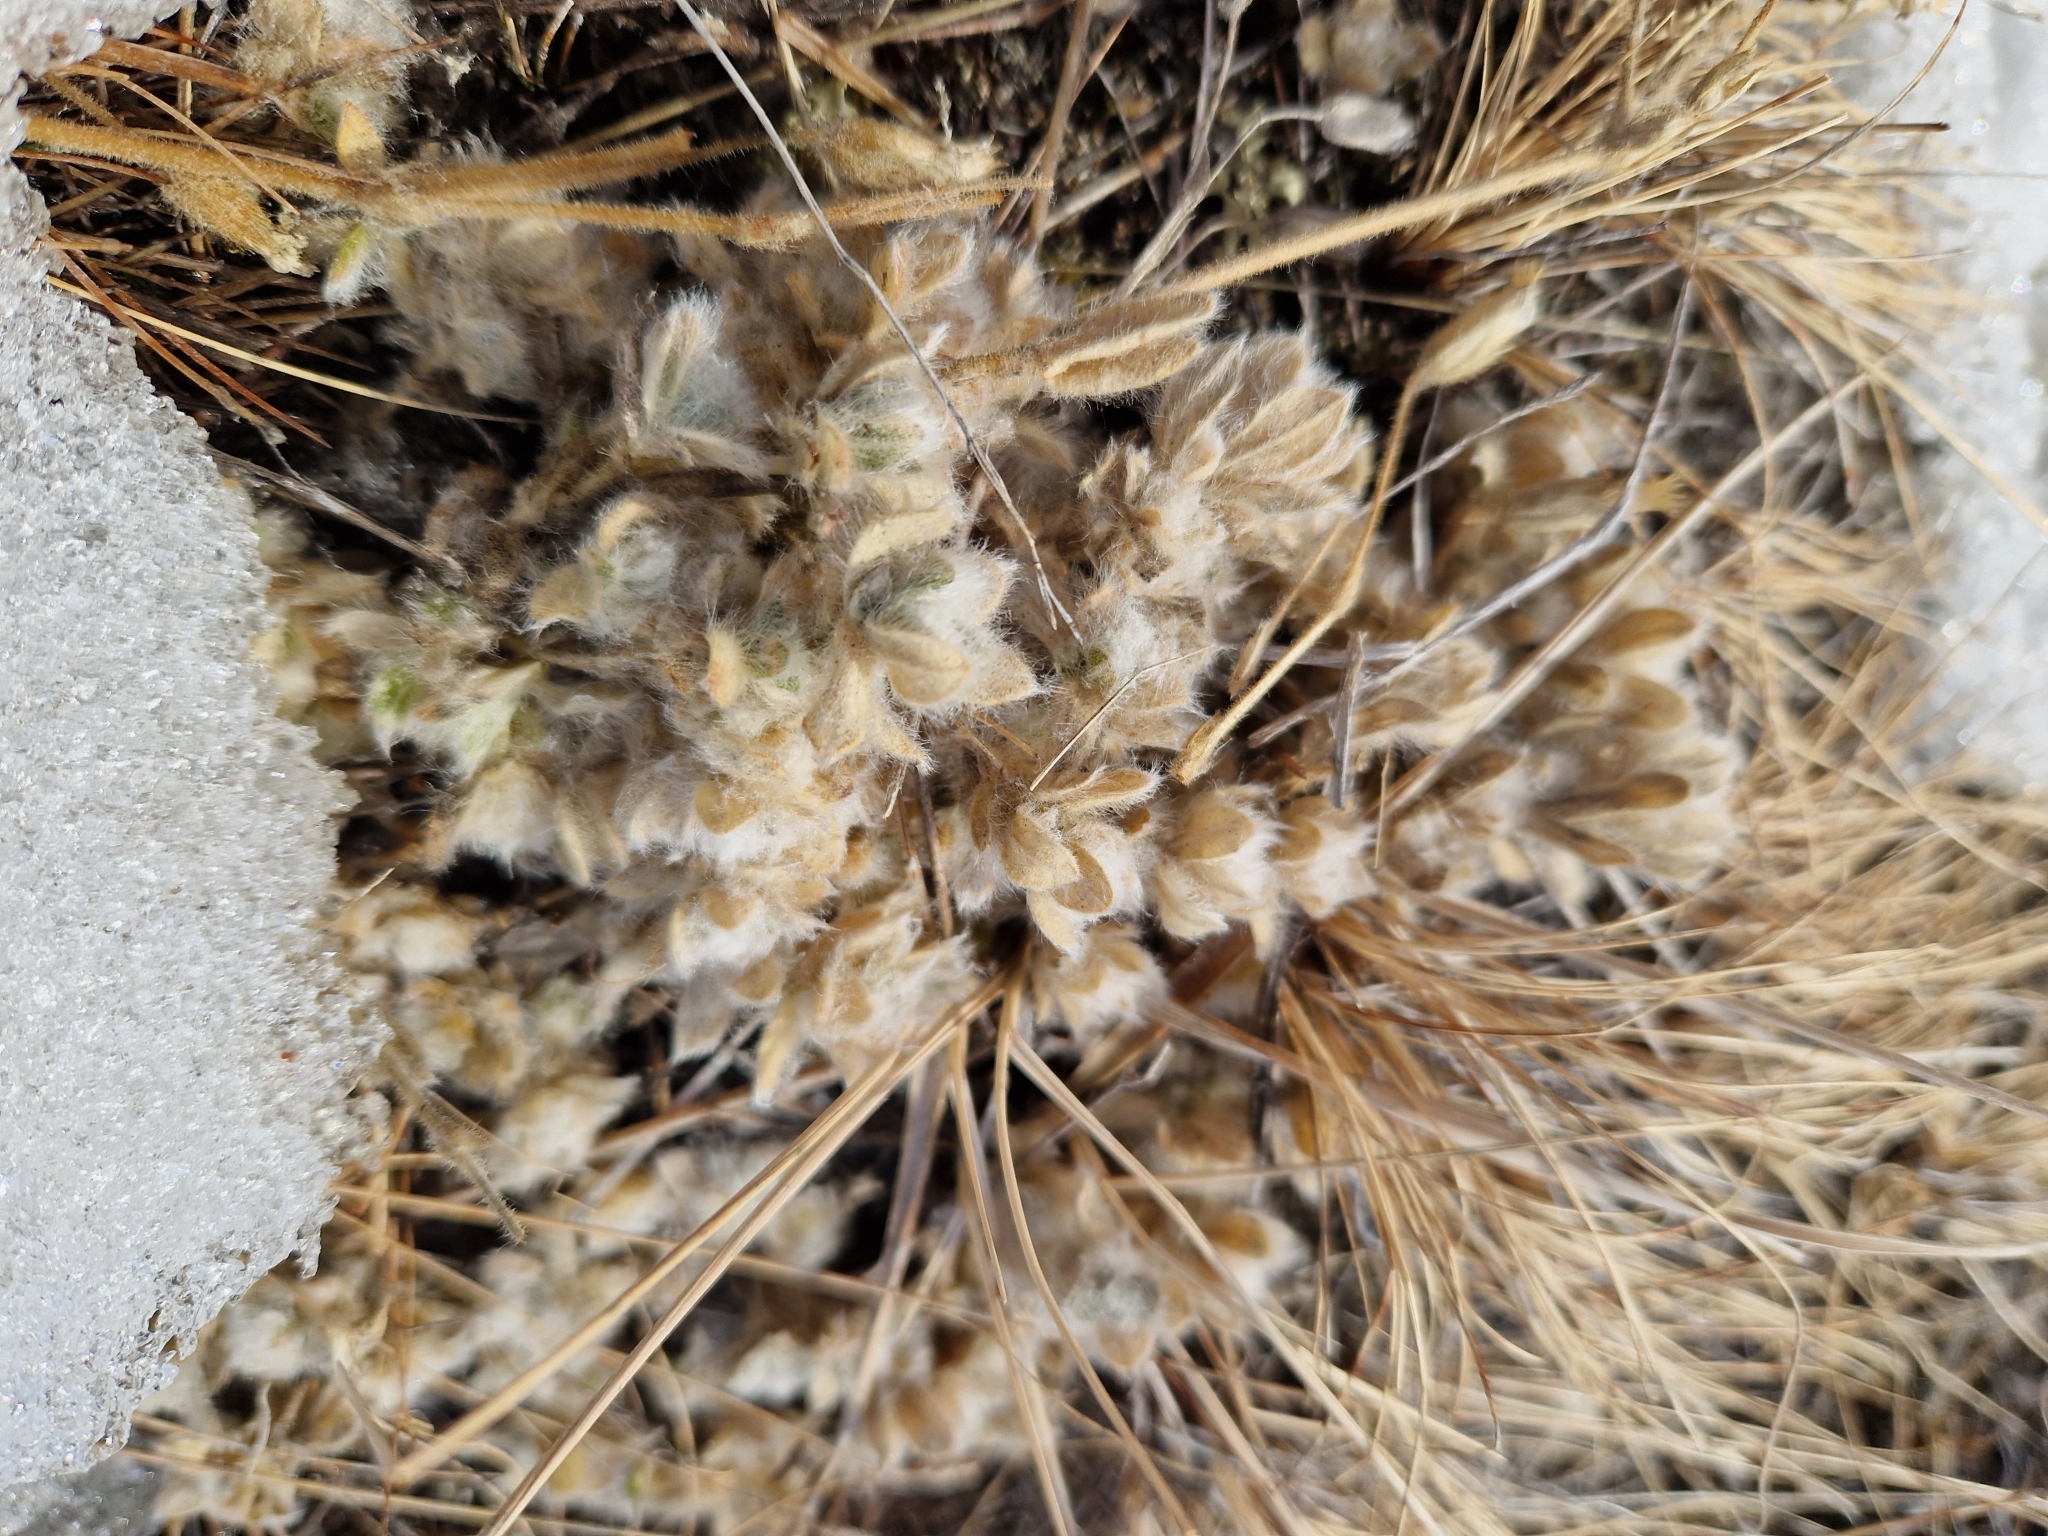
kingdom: Plantae
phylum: Tracheophyta
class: Magnoliopsida
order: Caryophyllales
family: Caryophyllaceae
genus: Cerastium
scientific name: Cerastium alpinum
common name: Alpine mouse-ear
